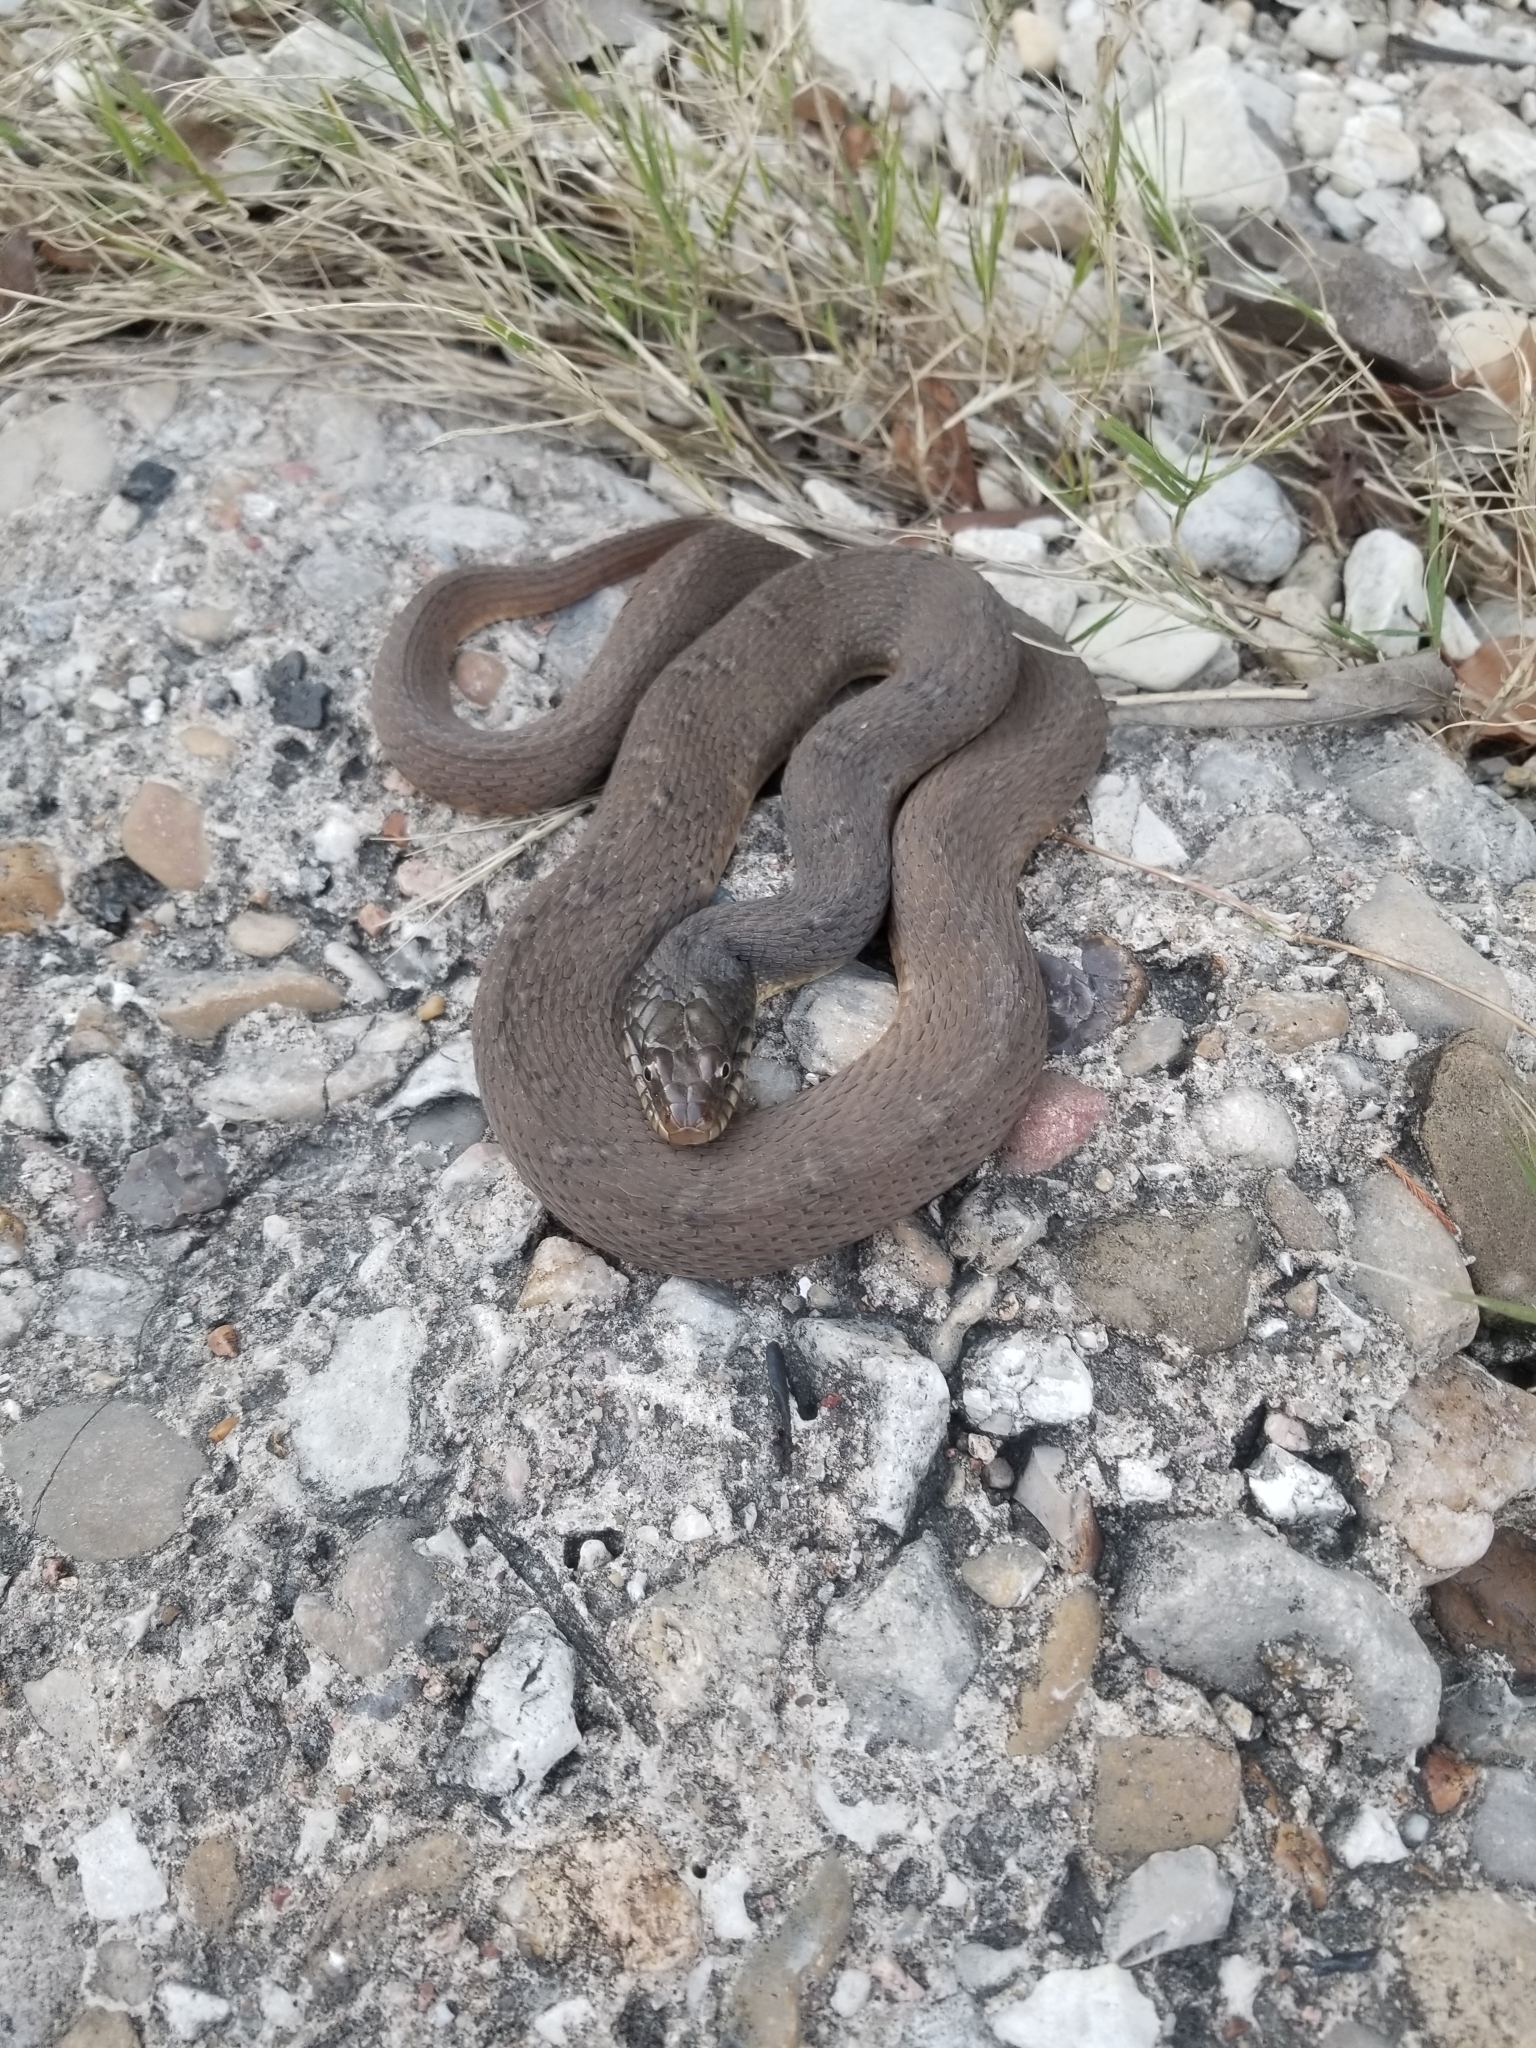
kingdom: Animalia
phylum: Chordata
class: Squamata
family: Colubridae
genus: Nerodia
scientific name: Nerodia erythrogaster
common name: Plainbelly water snake
